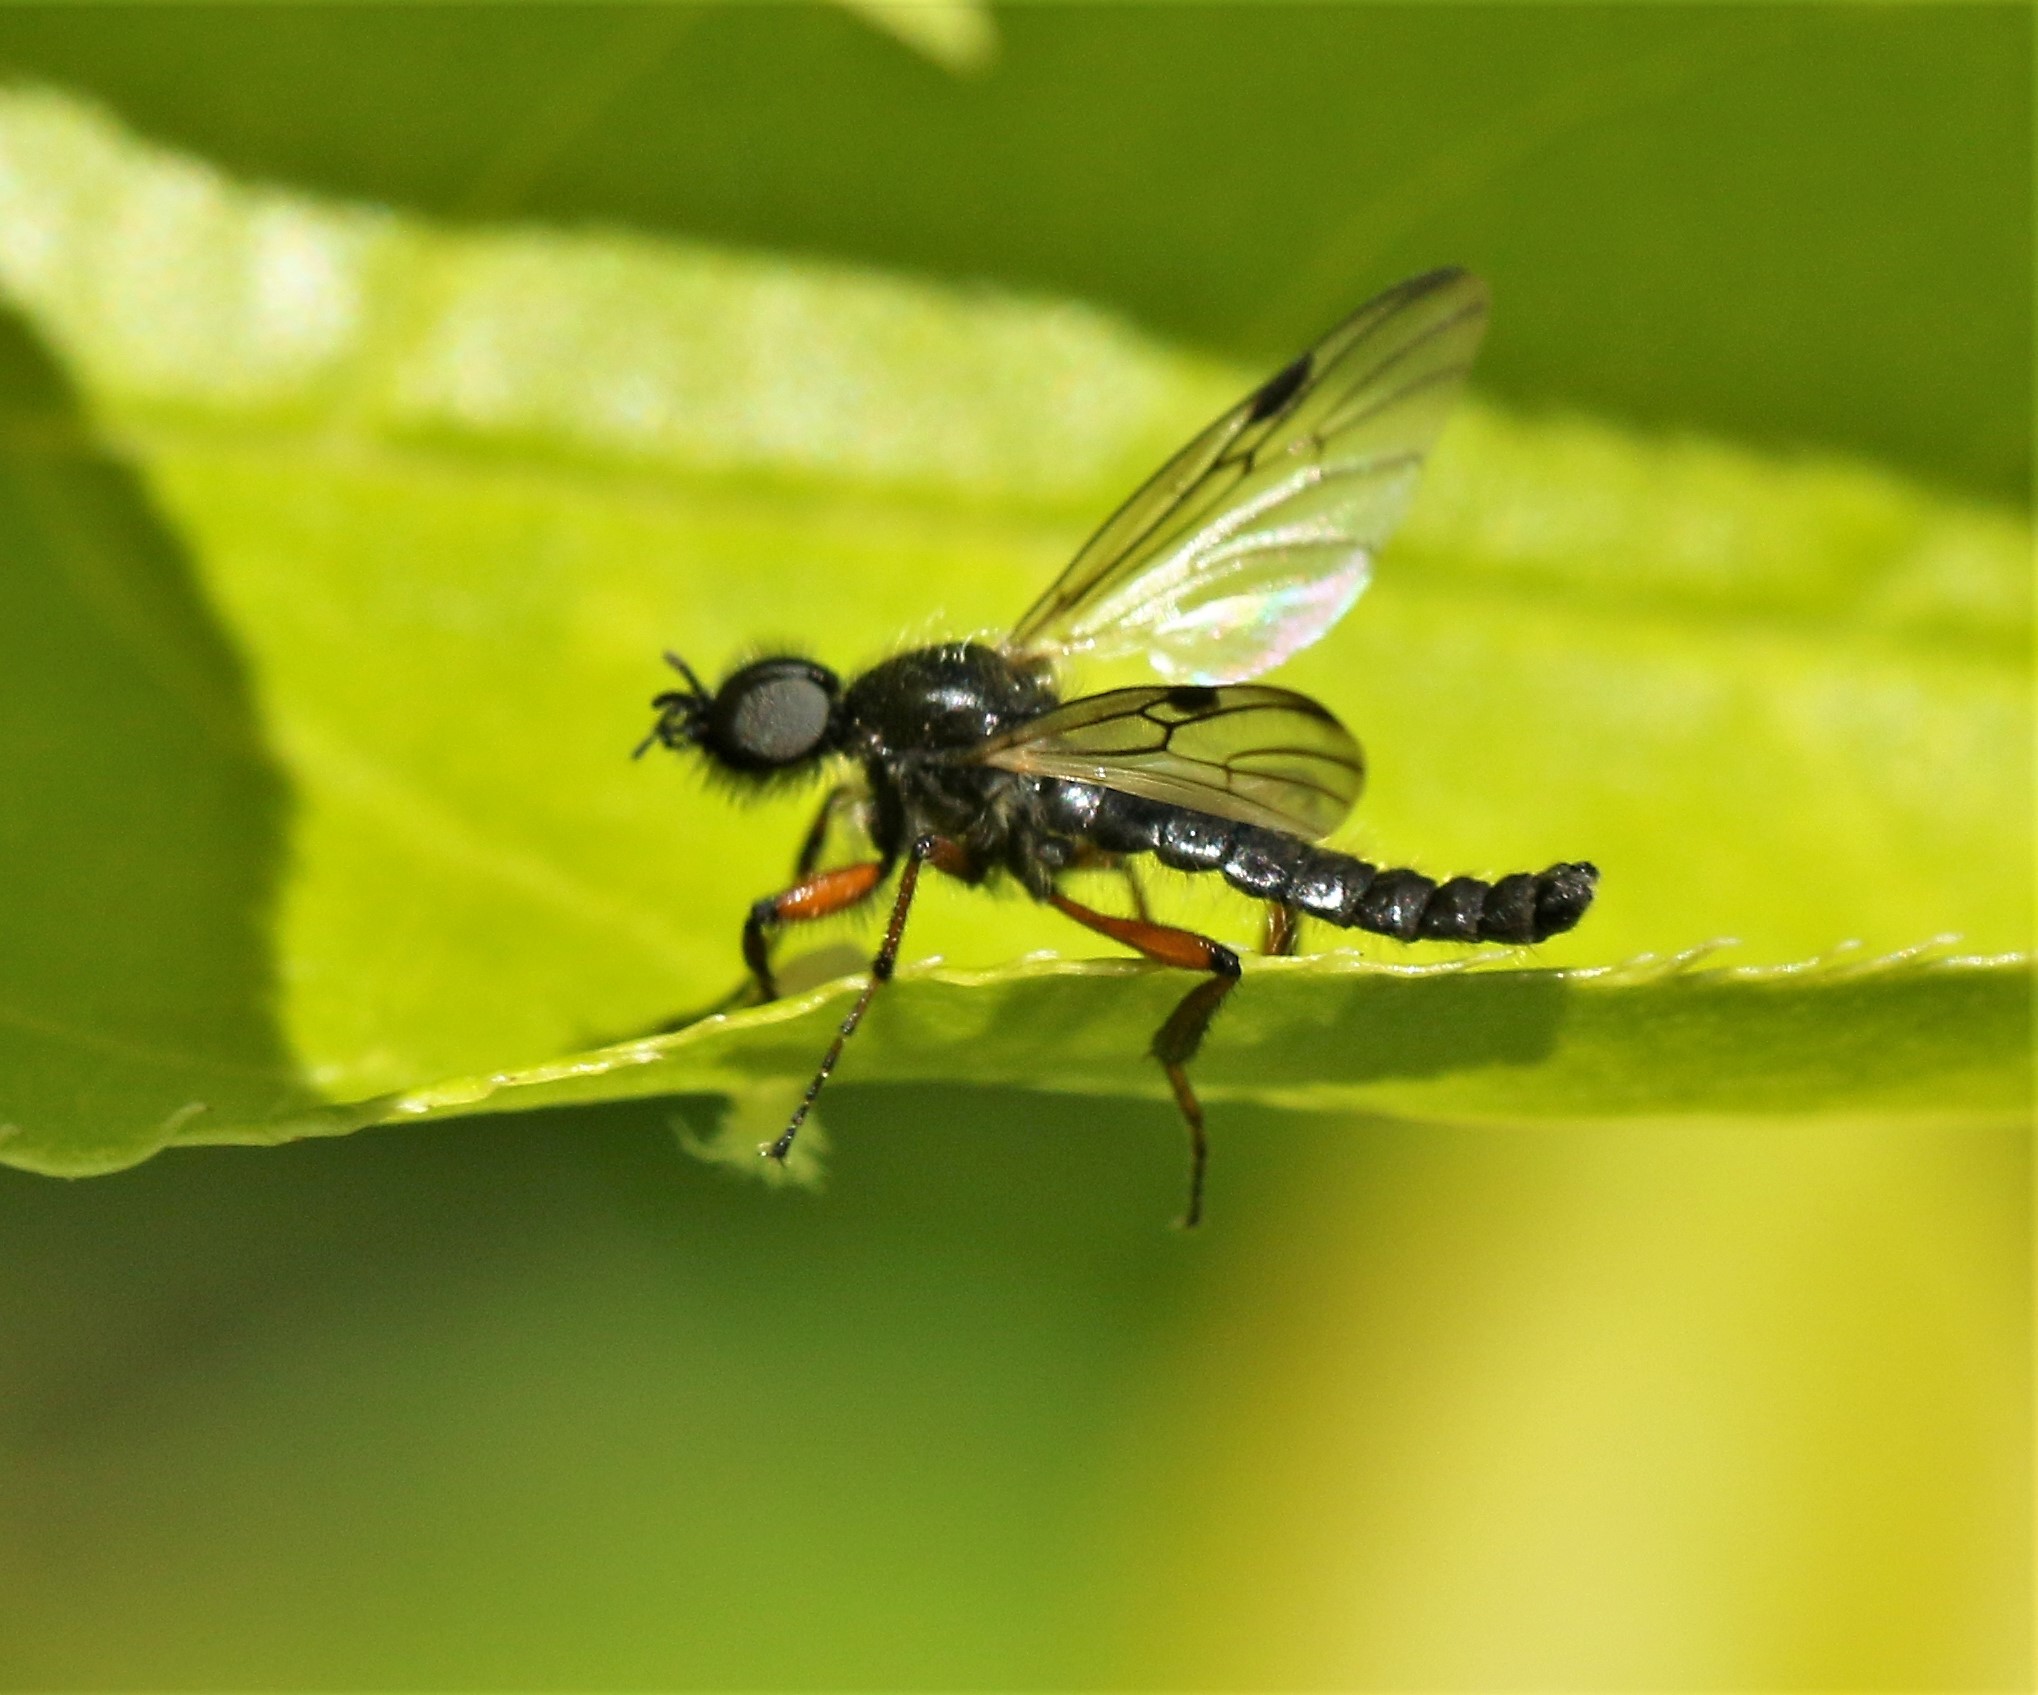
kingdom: Animalia
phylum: Arthropoda
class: Insecta
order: Diptera
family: Bibionidae
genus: Bibio
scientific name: Bibio xanthopus
